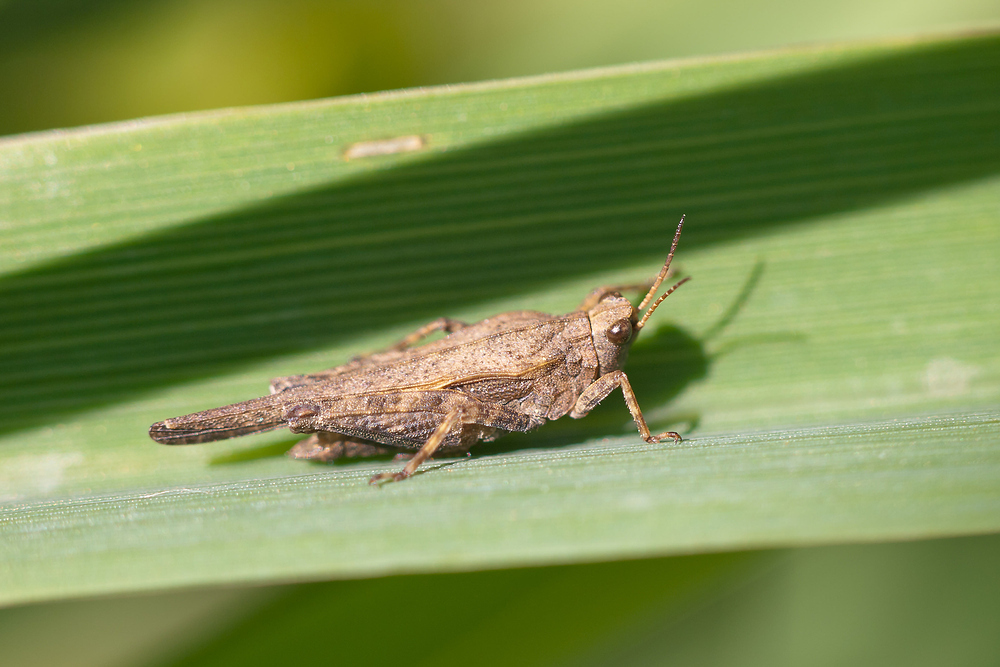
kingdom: Animalia
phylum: Arthropoda
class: Insecta
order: Orthoptera
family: Tetrigidae
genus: Tetrix
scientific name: Tetrix subulata
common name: Slender ground-hopper
